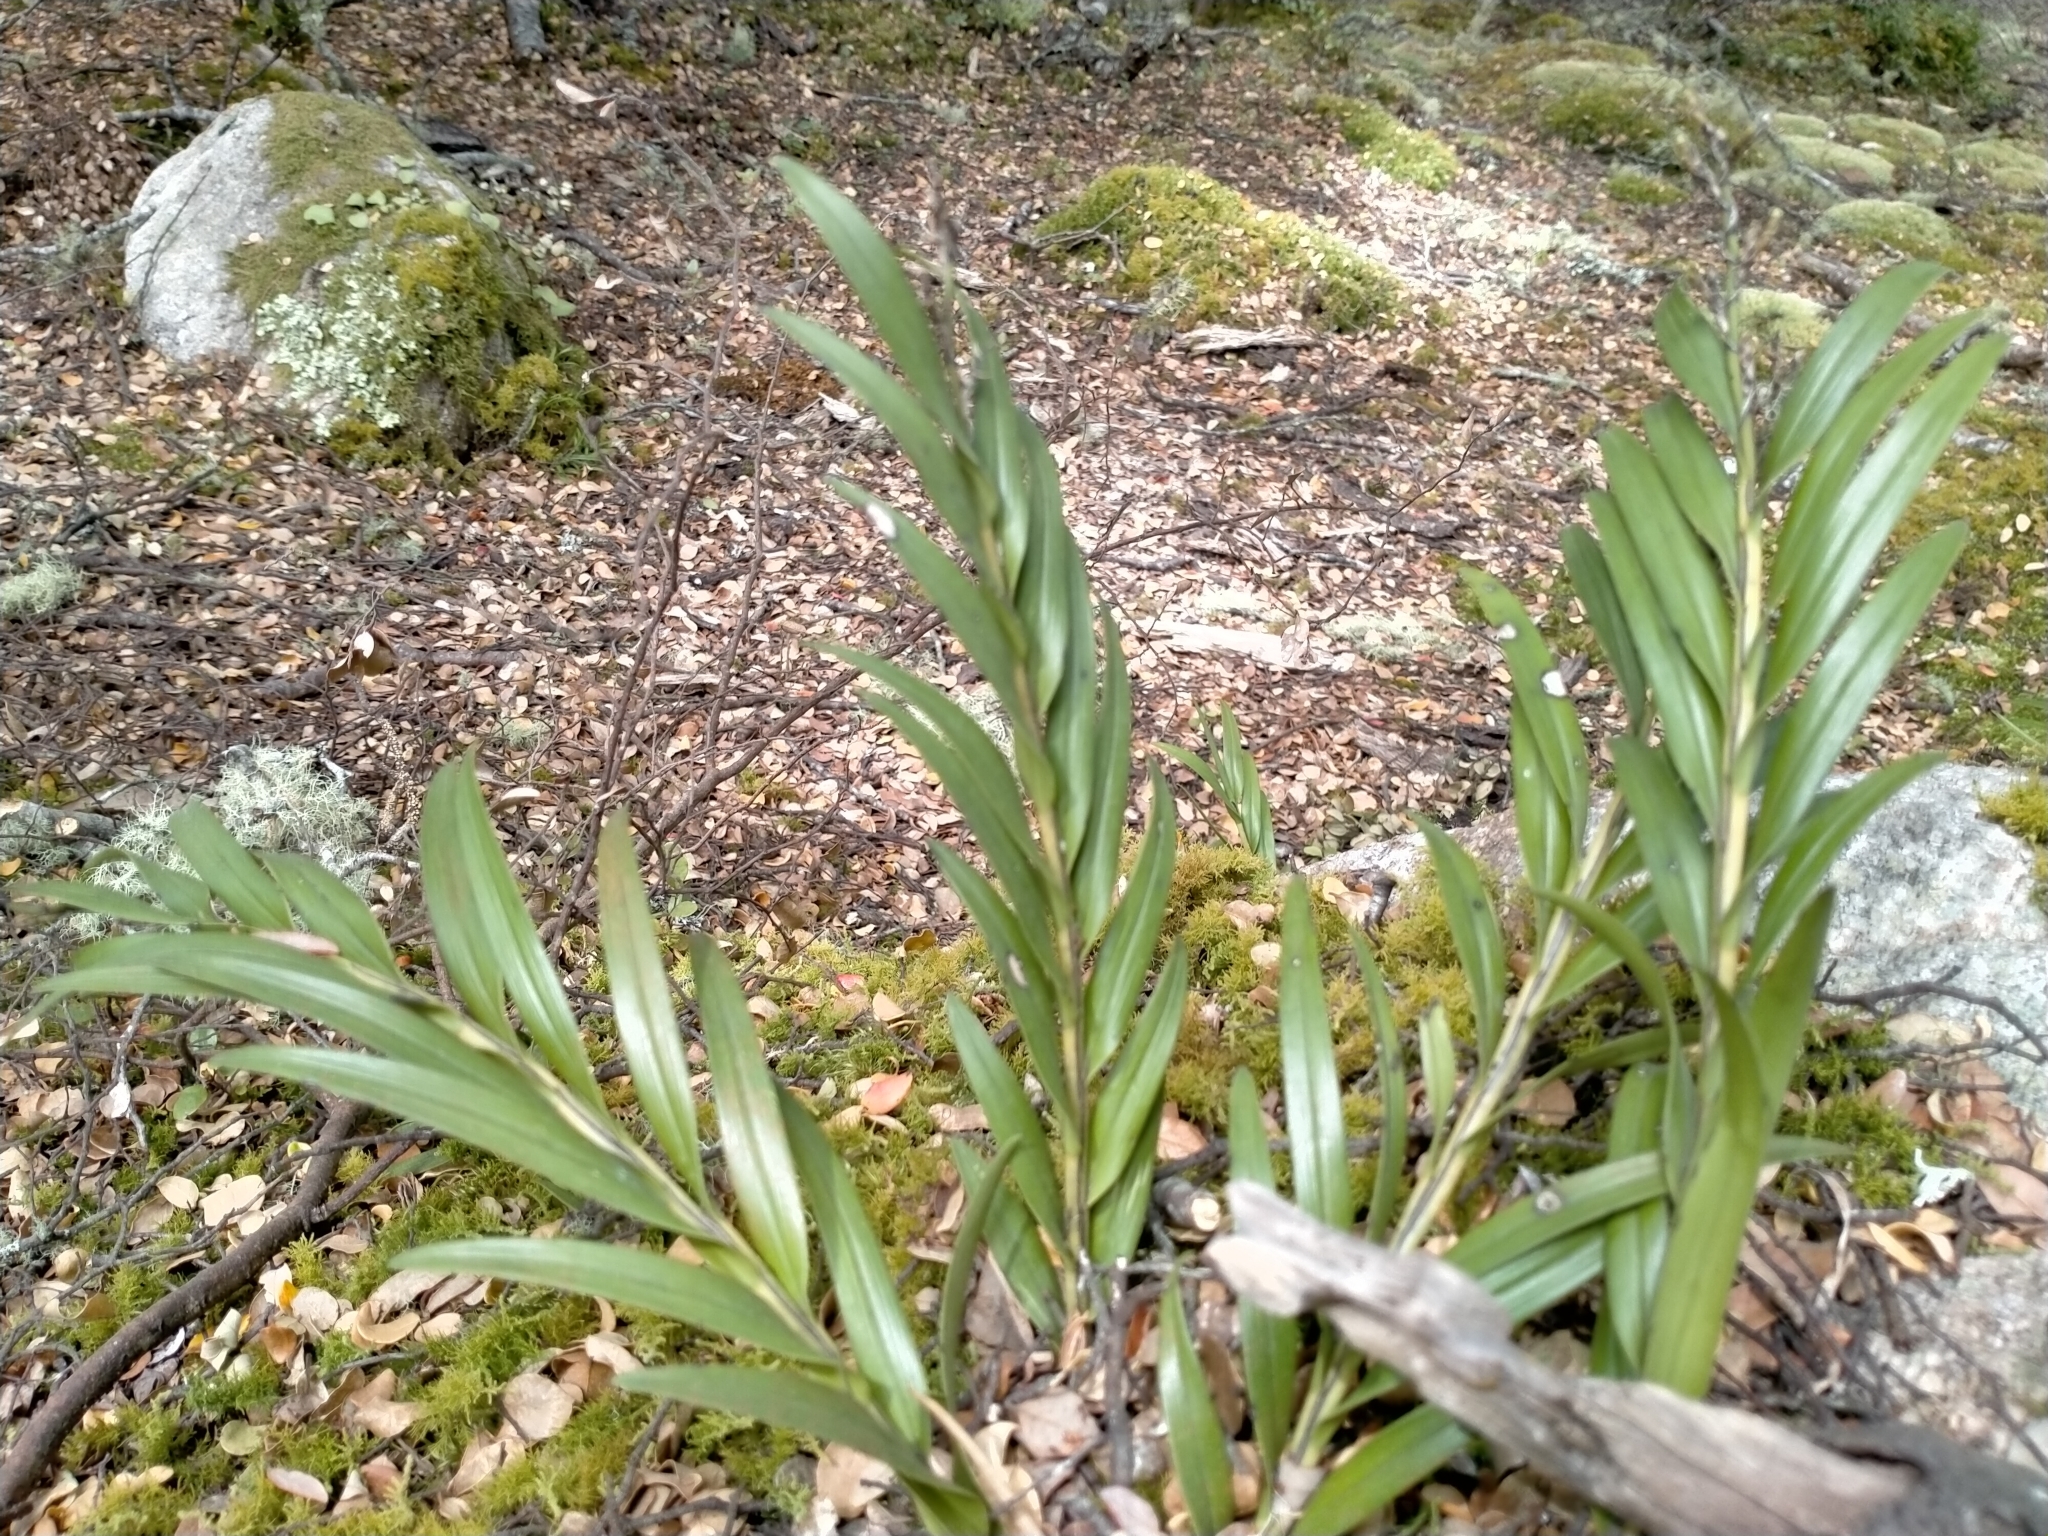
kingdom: Plantae
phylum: Tracheophyta
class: Liliopsida
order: Asparagales
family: Orchidaceae
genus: Earina
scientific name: Earina autumnalis
